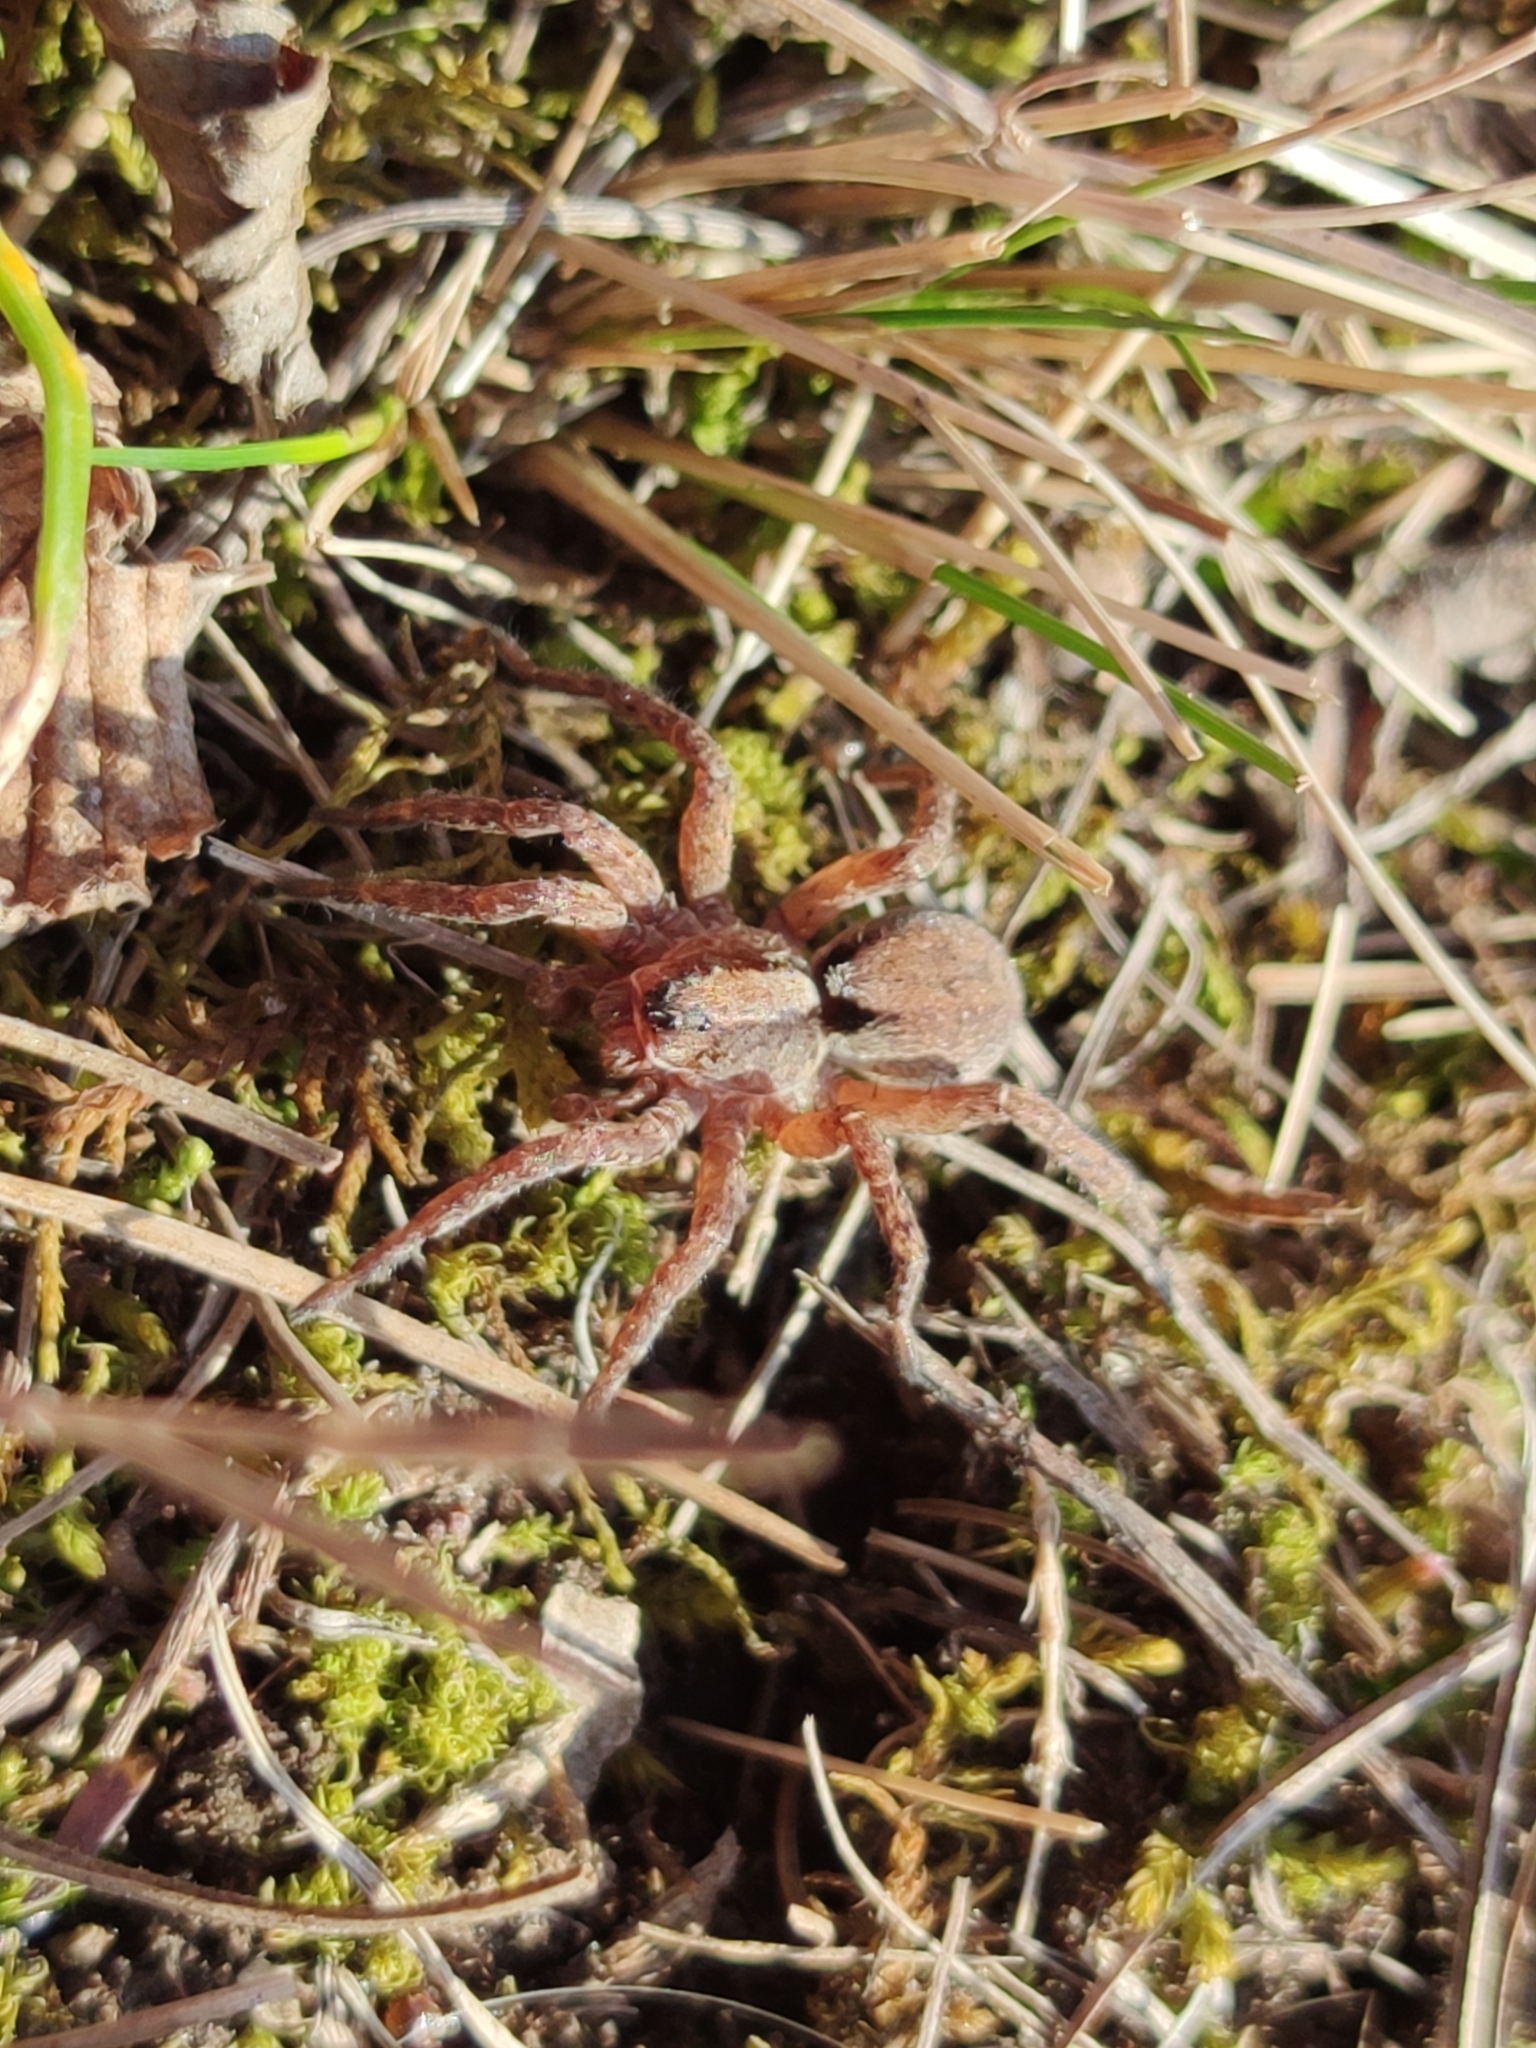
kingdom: Animalia
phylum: Arthropoda
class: Arachnida
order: Araneae
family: Lycosidae
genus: Alopecosa
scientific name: Alopecosa sulzeri
